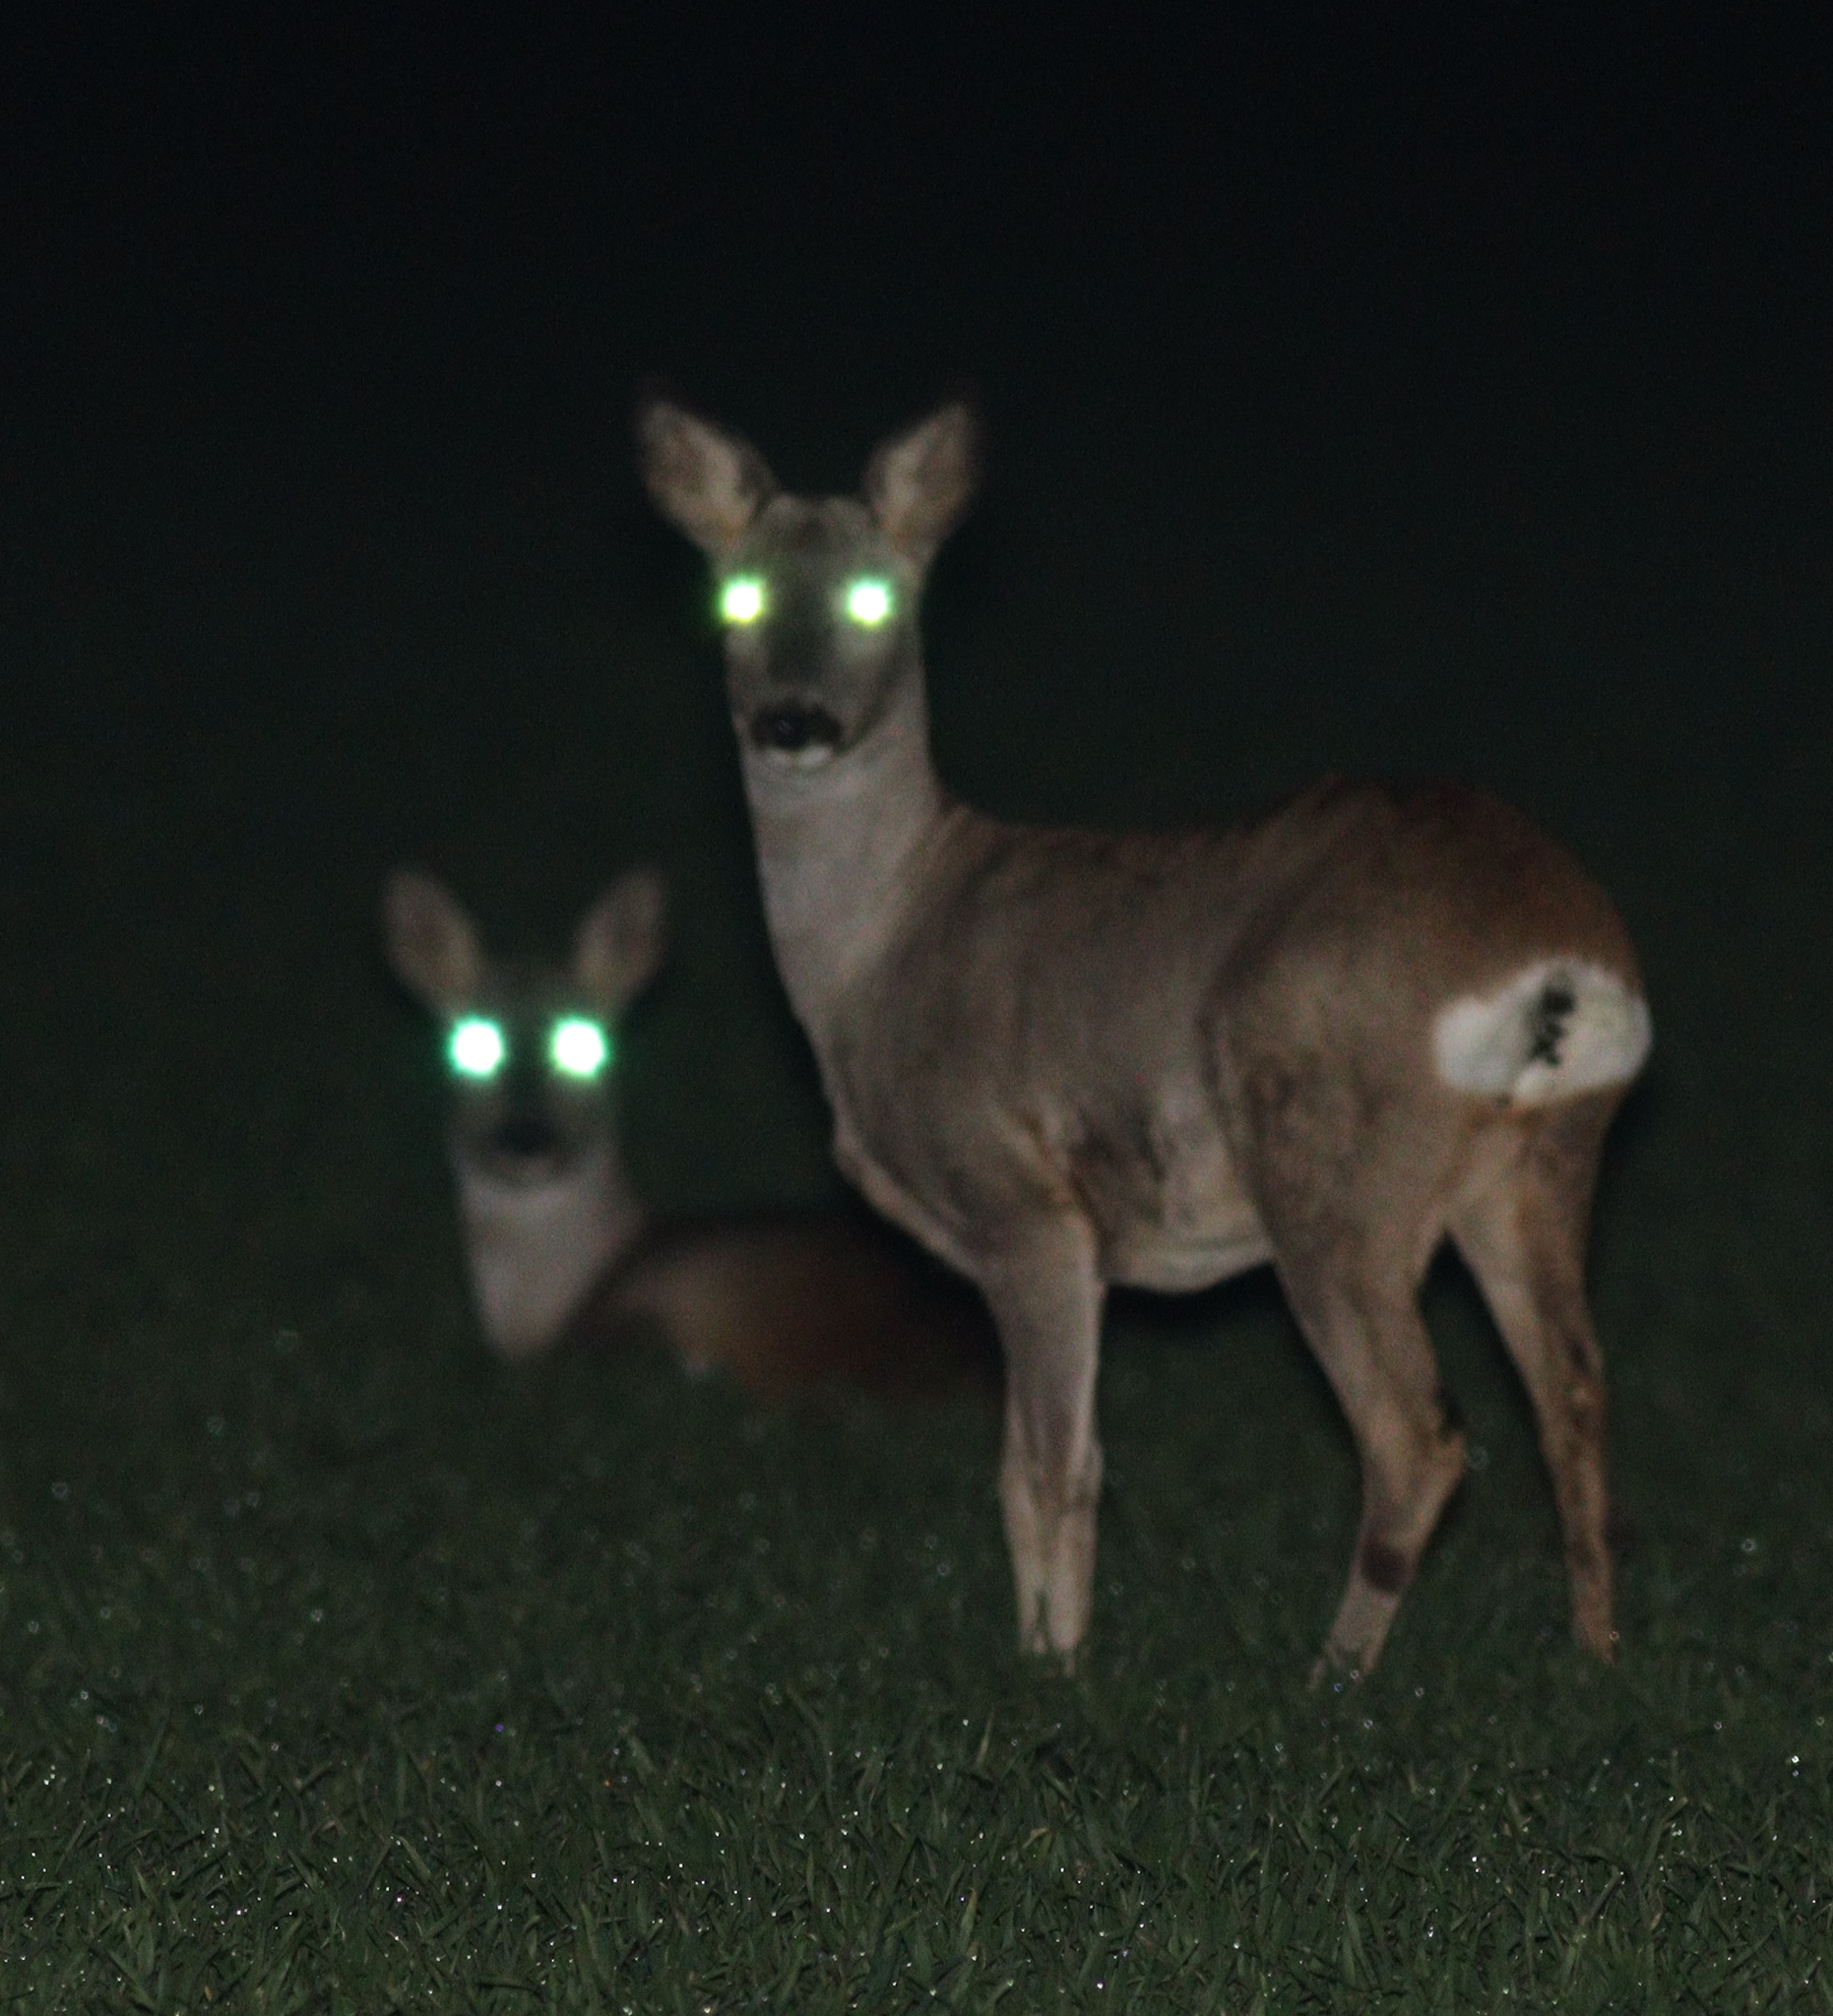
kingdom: Animalia
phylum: Chordata
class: Mammalia
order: Artiodactyla
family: Cervidae
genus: Capreolus
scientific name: Capreolus capreolus
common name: Western roe deer
